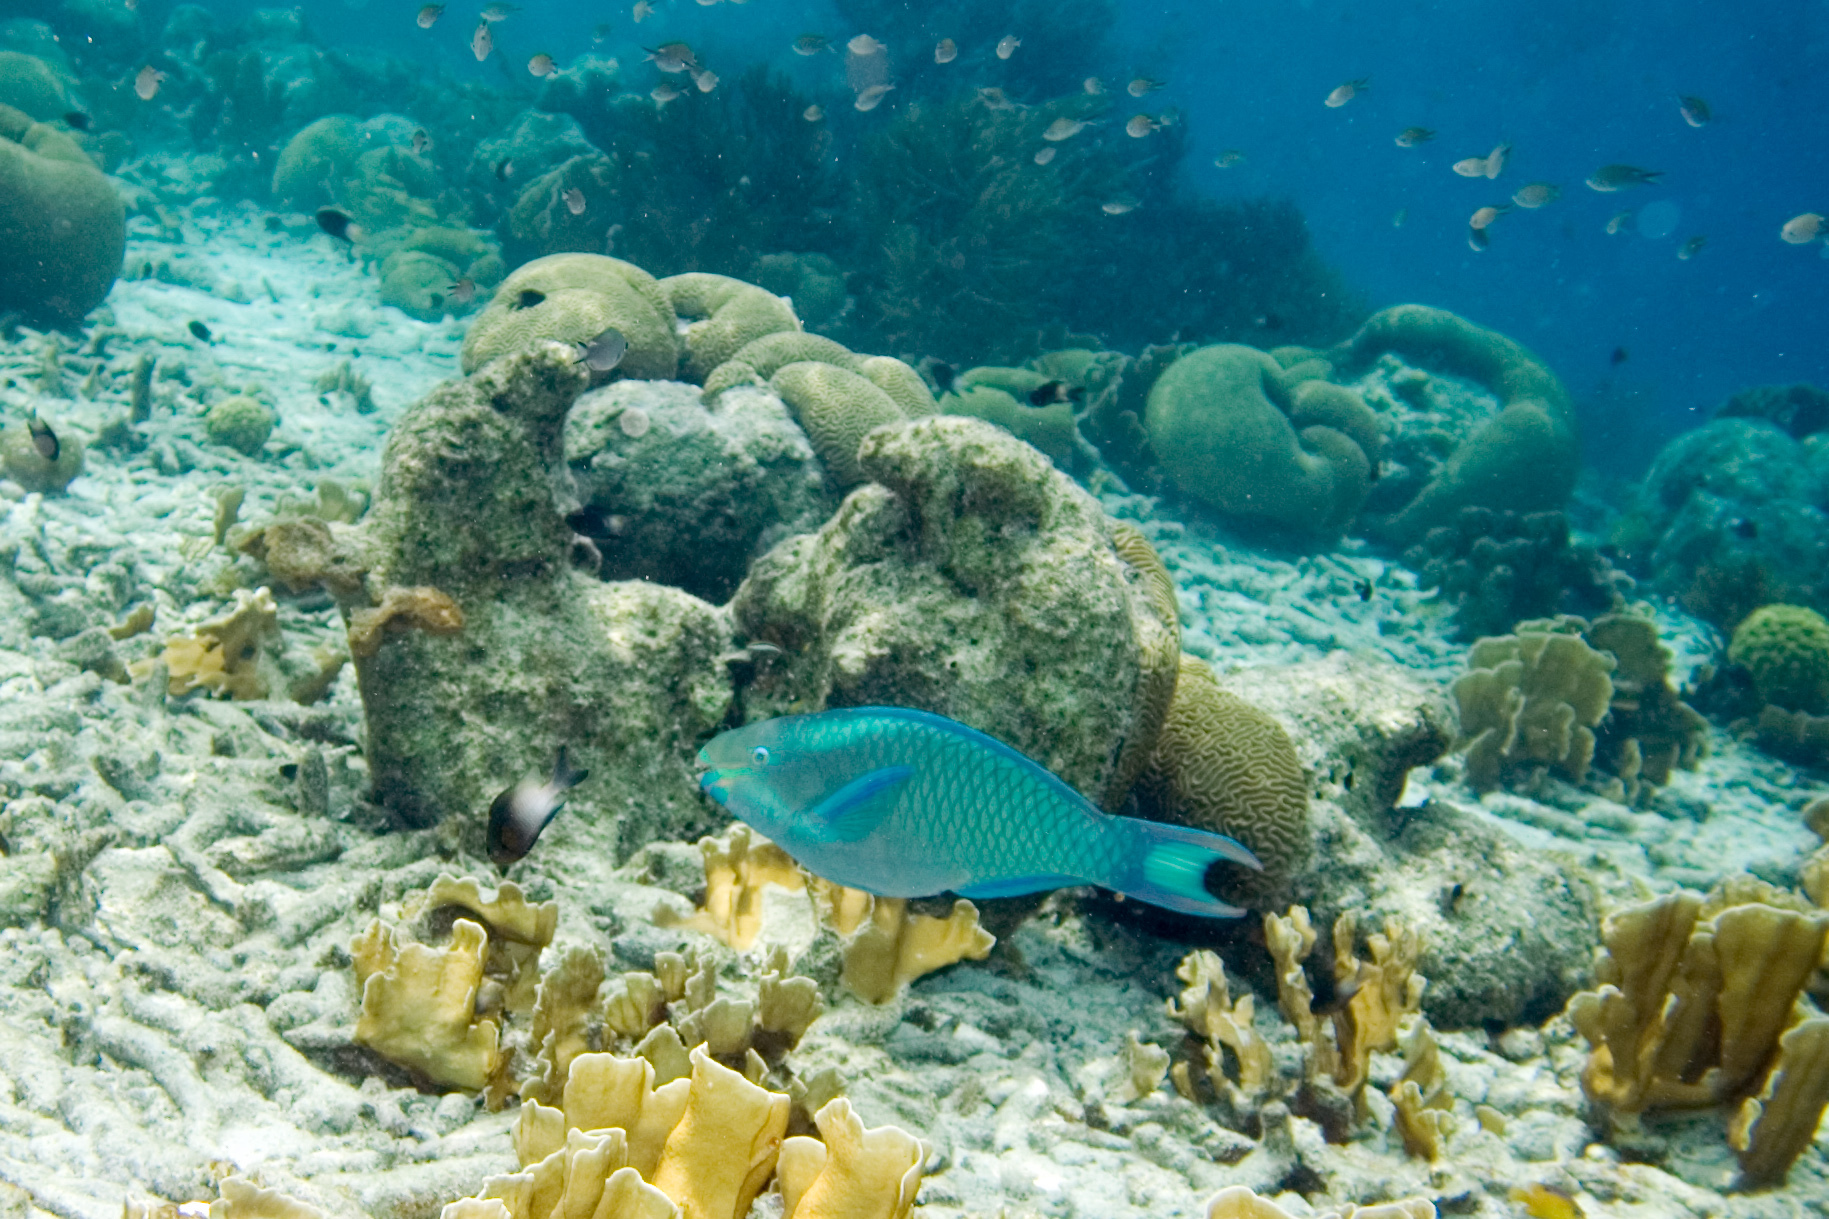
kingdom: Animalia
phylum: Chordata
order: Perciformes
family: Scaridae
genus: Scarus
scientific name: Scarus vetula
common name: Queen parrotfish
